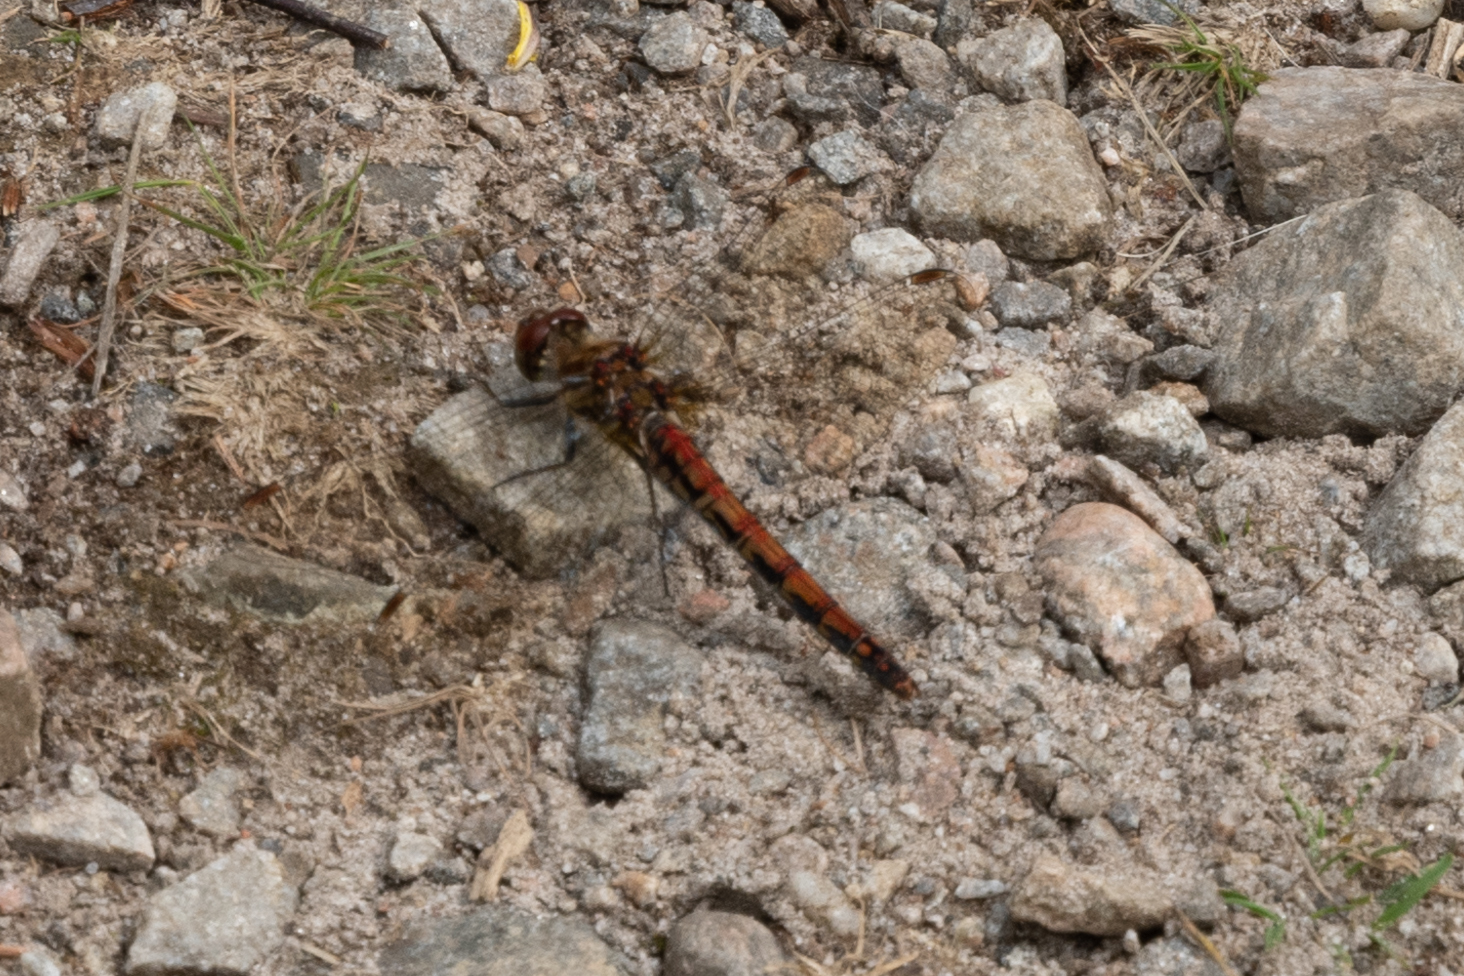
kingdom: Animalia
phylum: Arthropoda
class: Insecta
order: Odonata
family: Libellulidae
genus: Sympetrum
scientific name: Sympetrum striolatum
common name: Common darter
